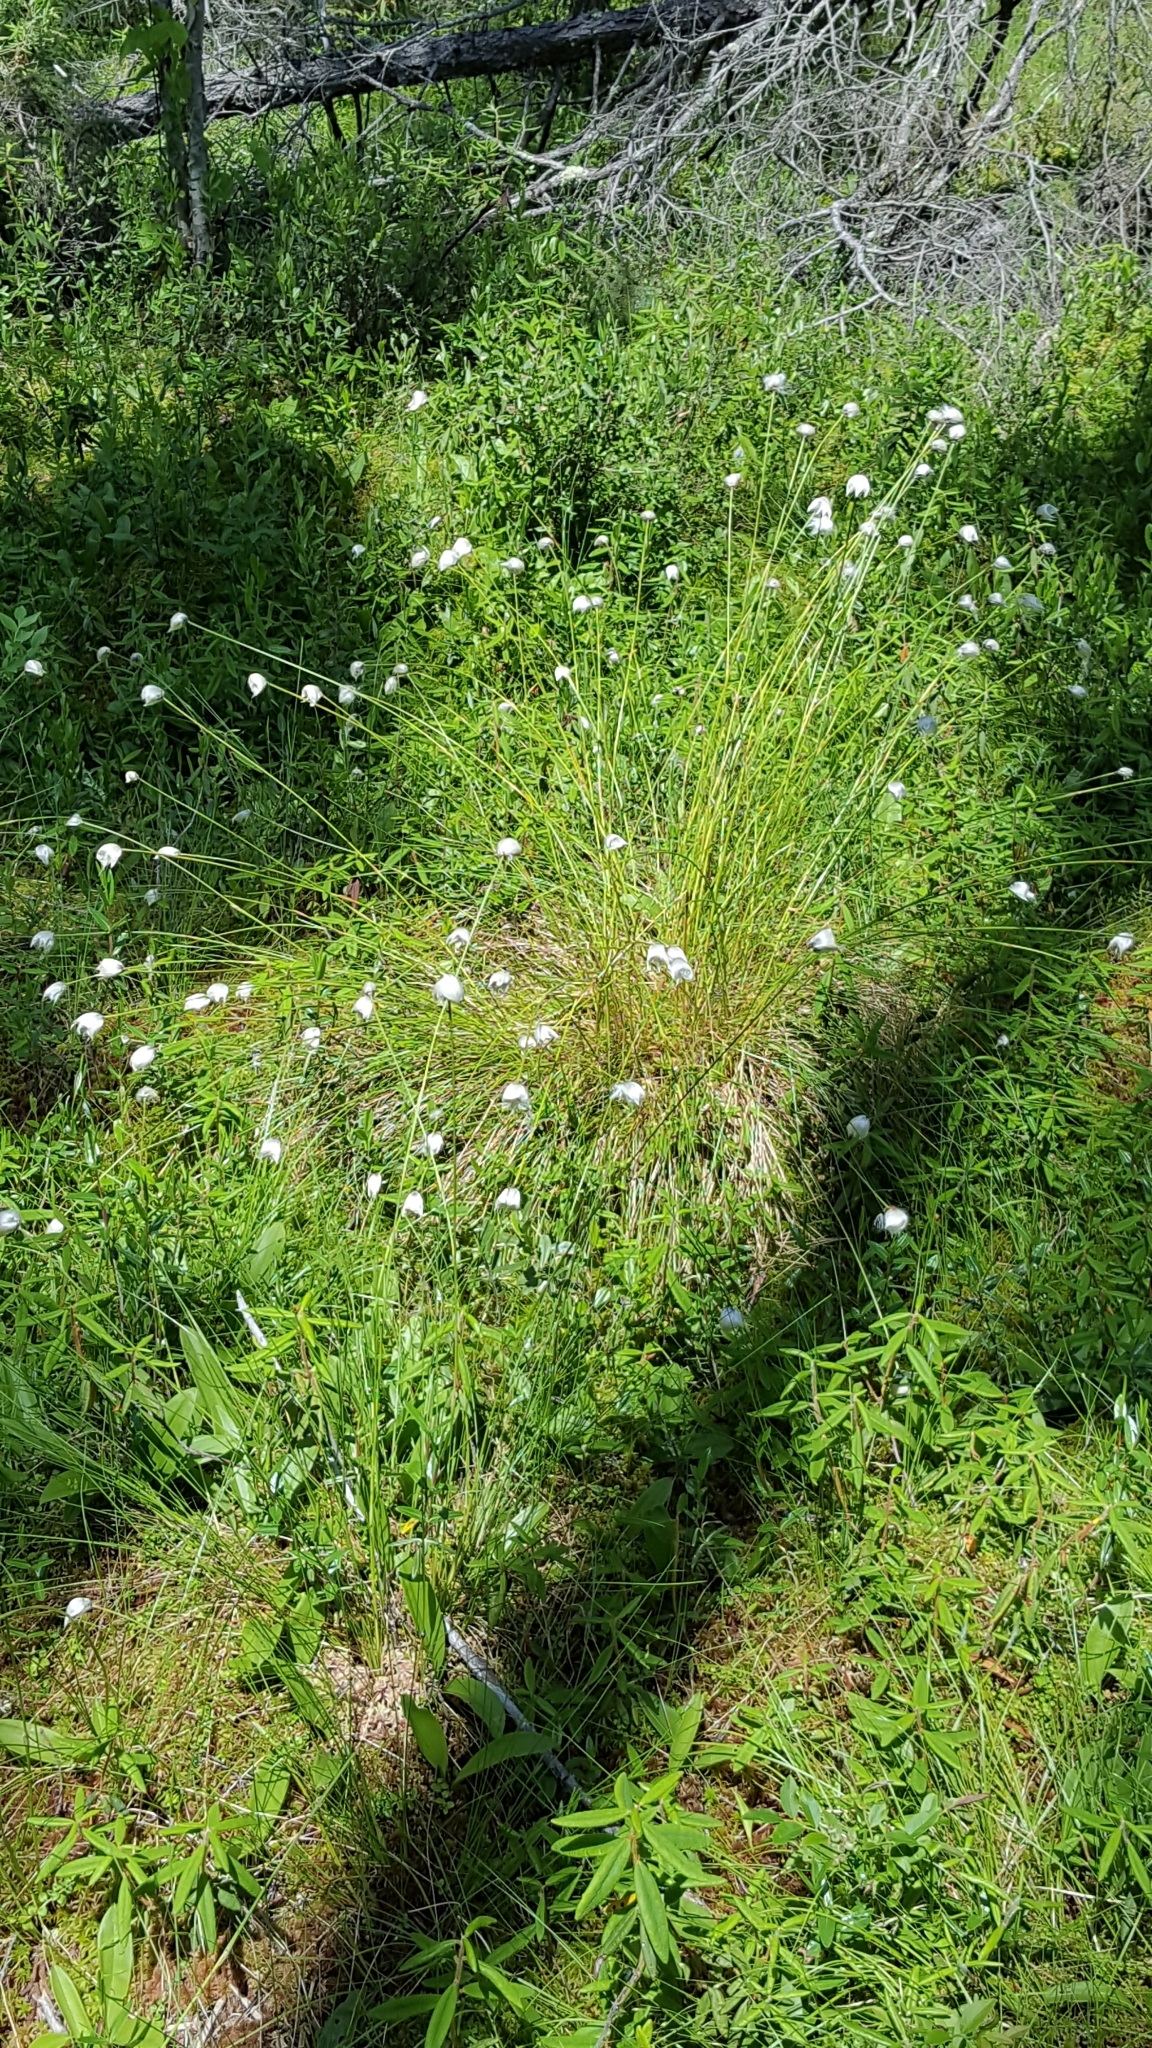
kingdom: Plantae
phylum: Tracheophyta
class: Liliopsida
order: Poales
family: Cyperaceae
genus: Eriophorum
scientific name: Eriophorum vaginatum
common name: Hare's-tail cottongrass
